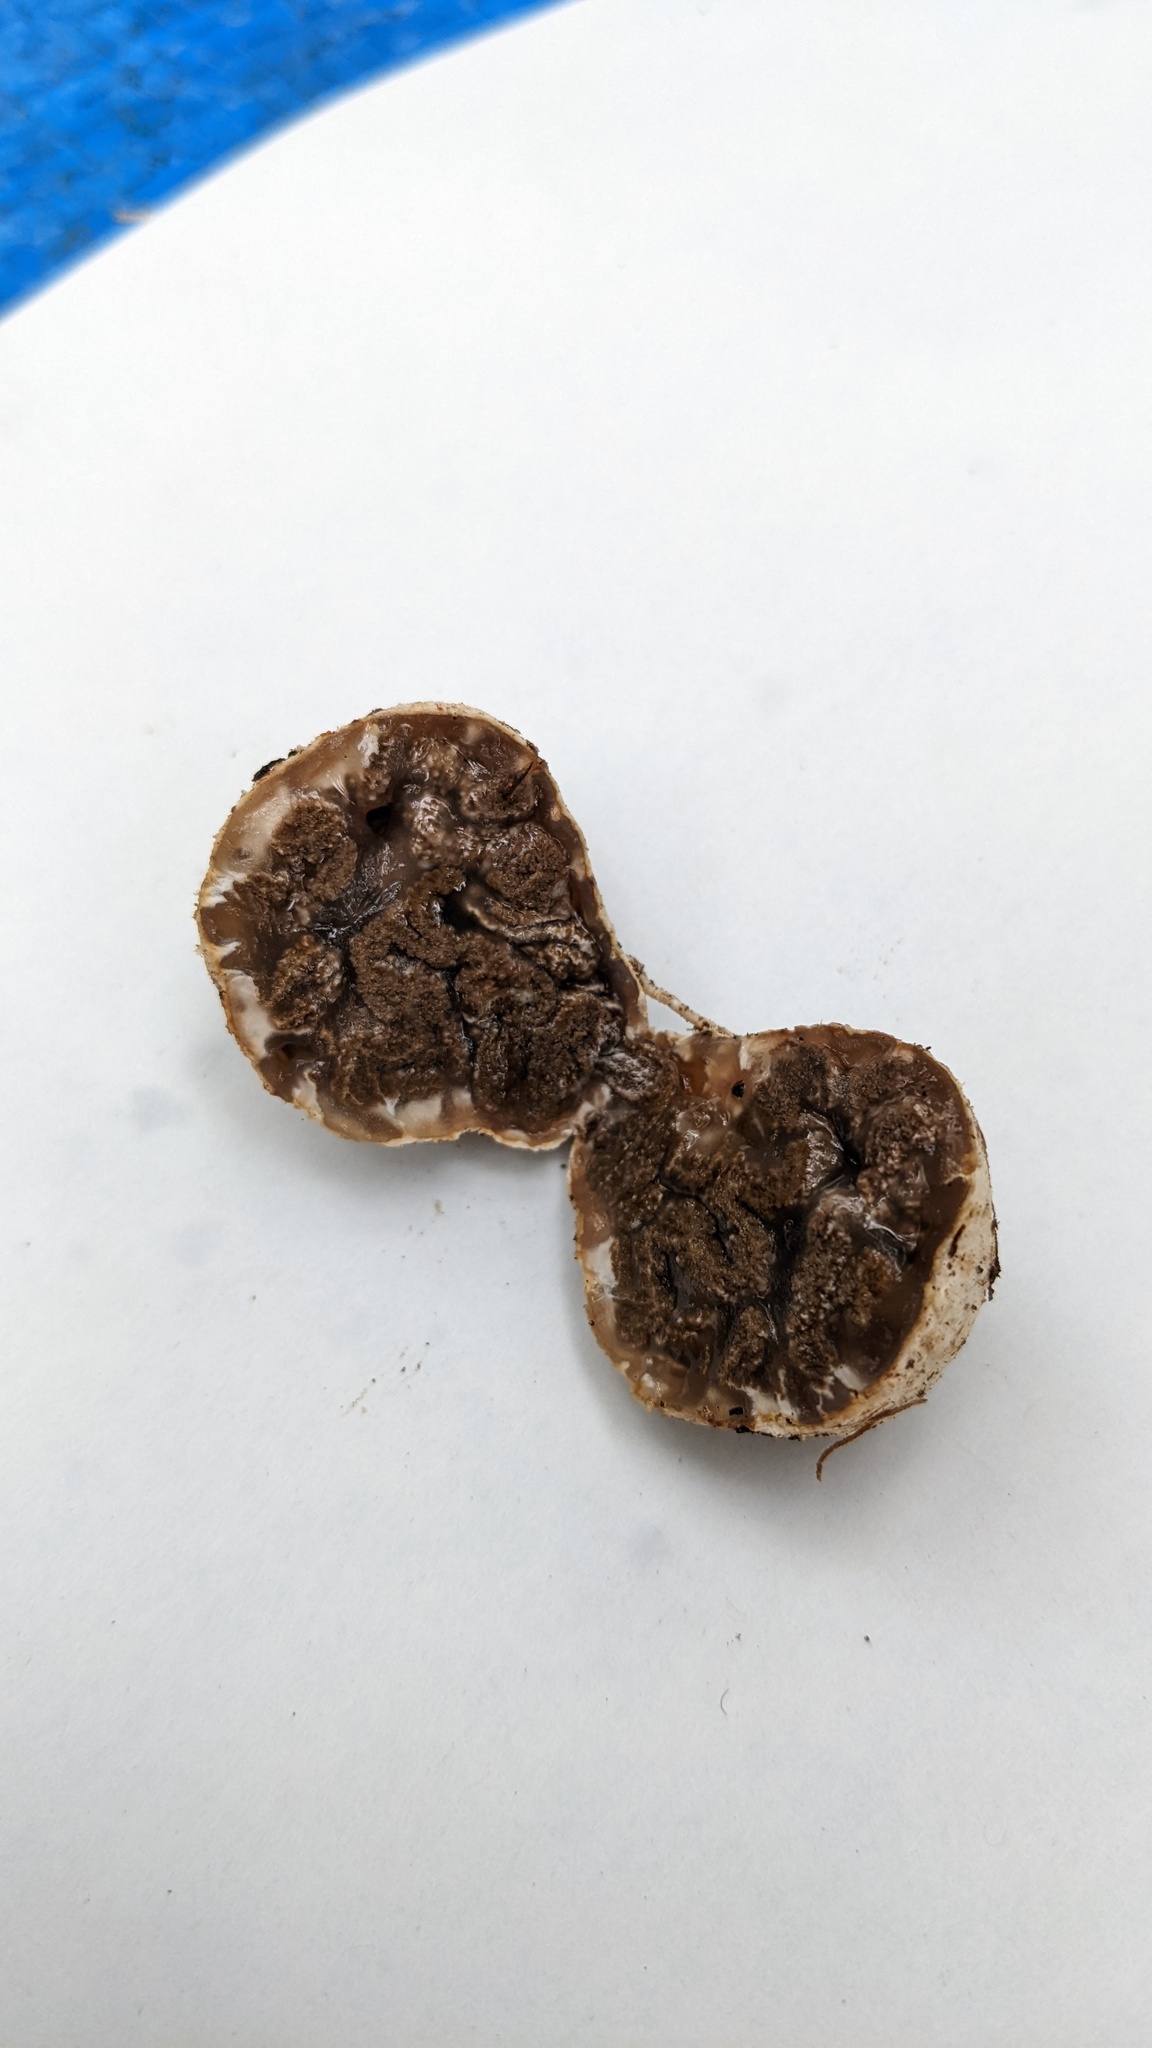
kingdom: Fungi
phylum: Basidiomycota
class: Agaricomycetes
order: Hysterangiales
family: Phallogastraceae
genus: Protubera
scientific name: Protubera nipponica
